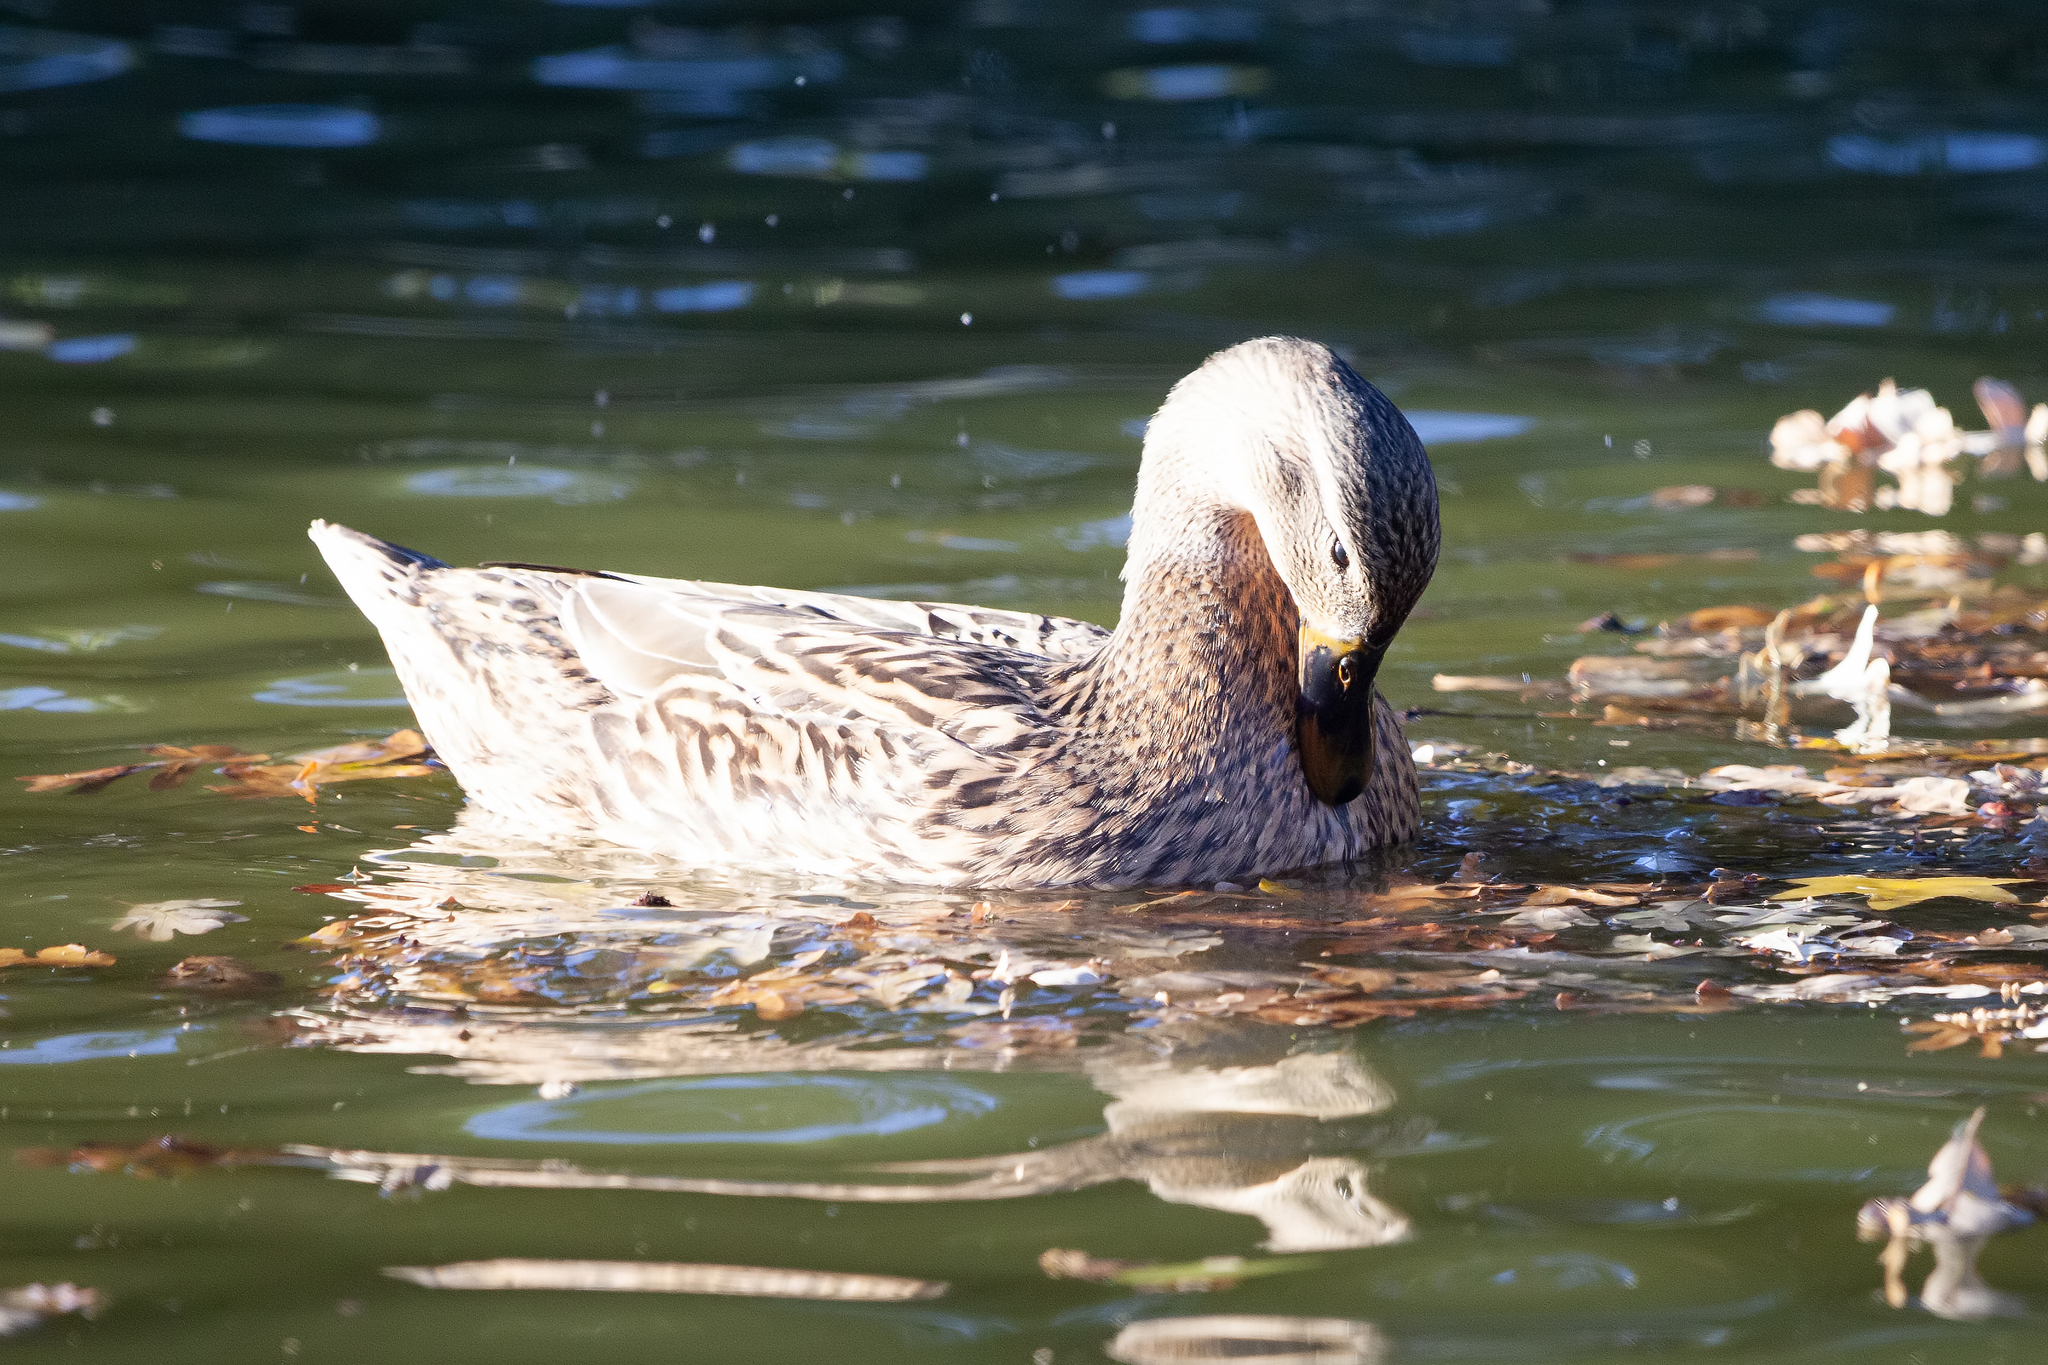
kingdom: Animalia
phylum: Chordata
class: Aves
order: Anseriformes
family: Anatidae
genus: Anas
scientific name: Anas platyrhynchos
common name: Mallard
